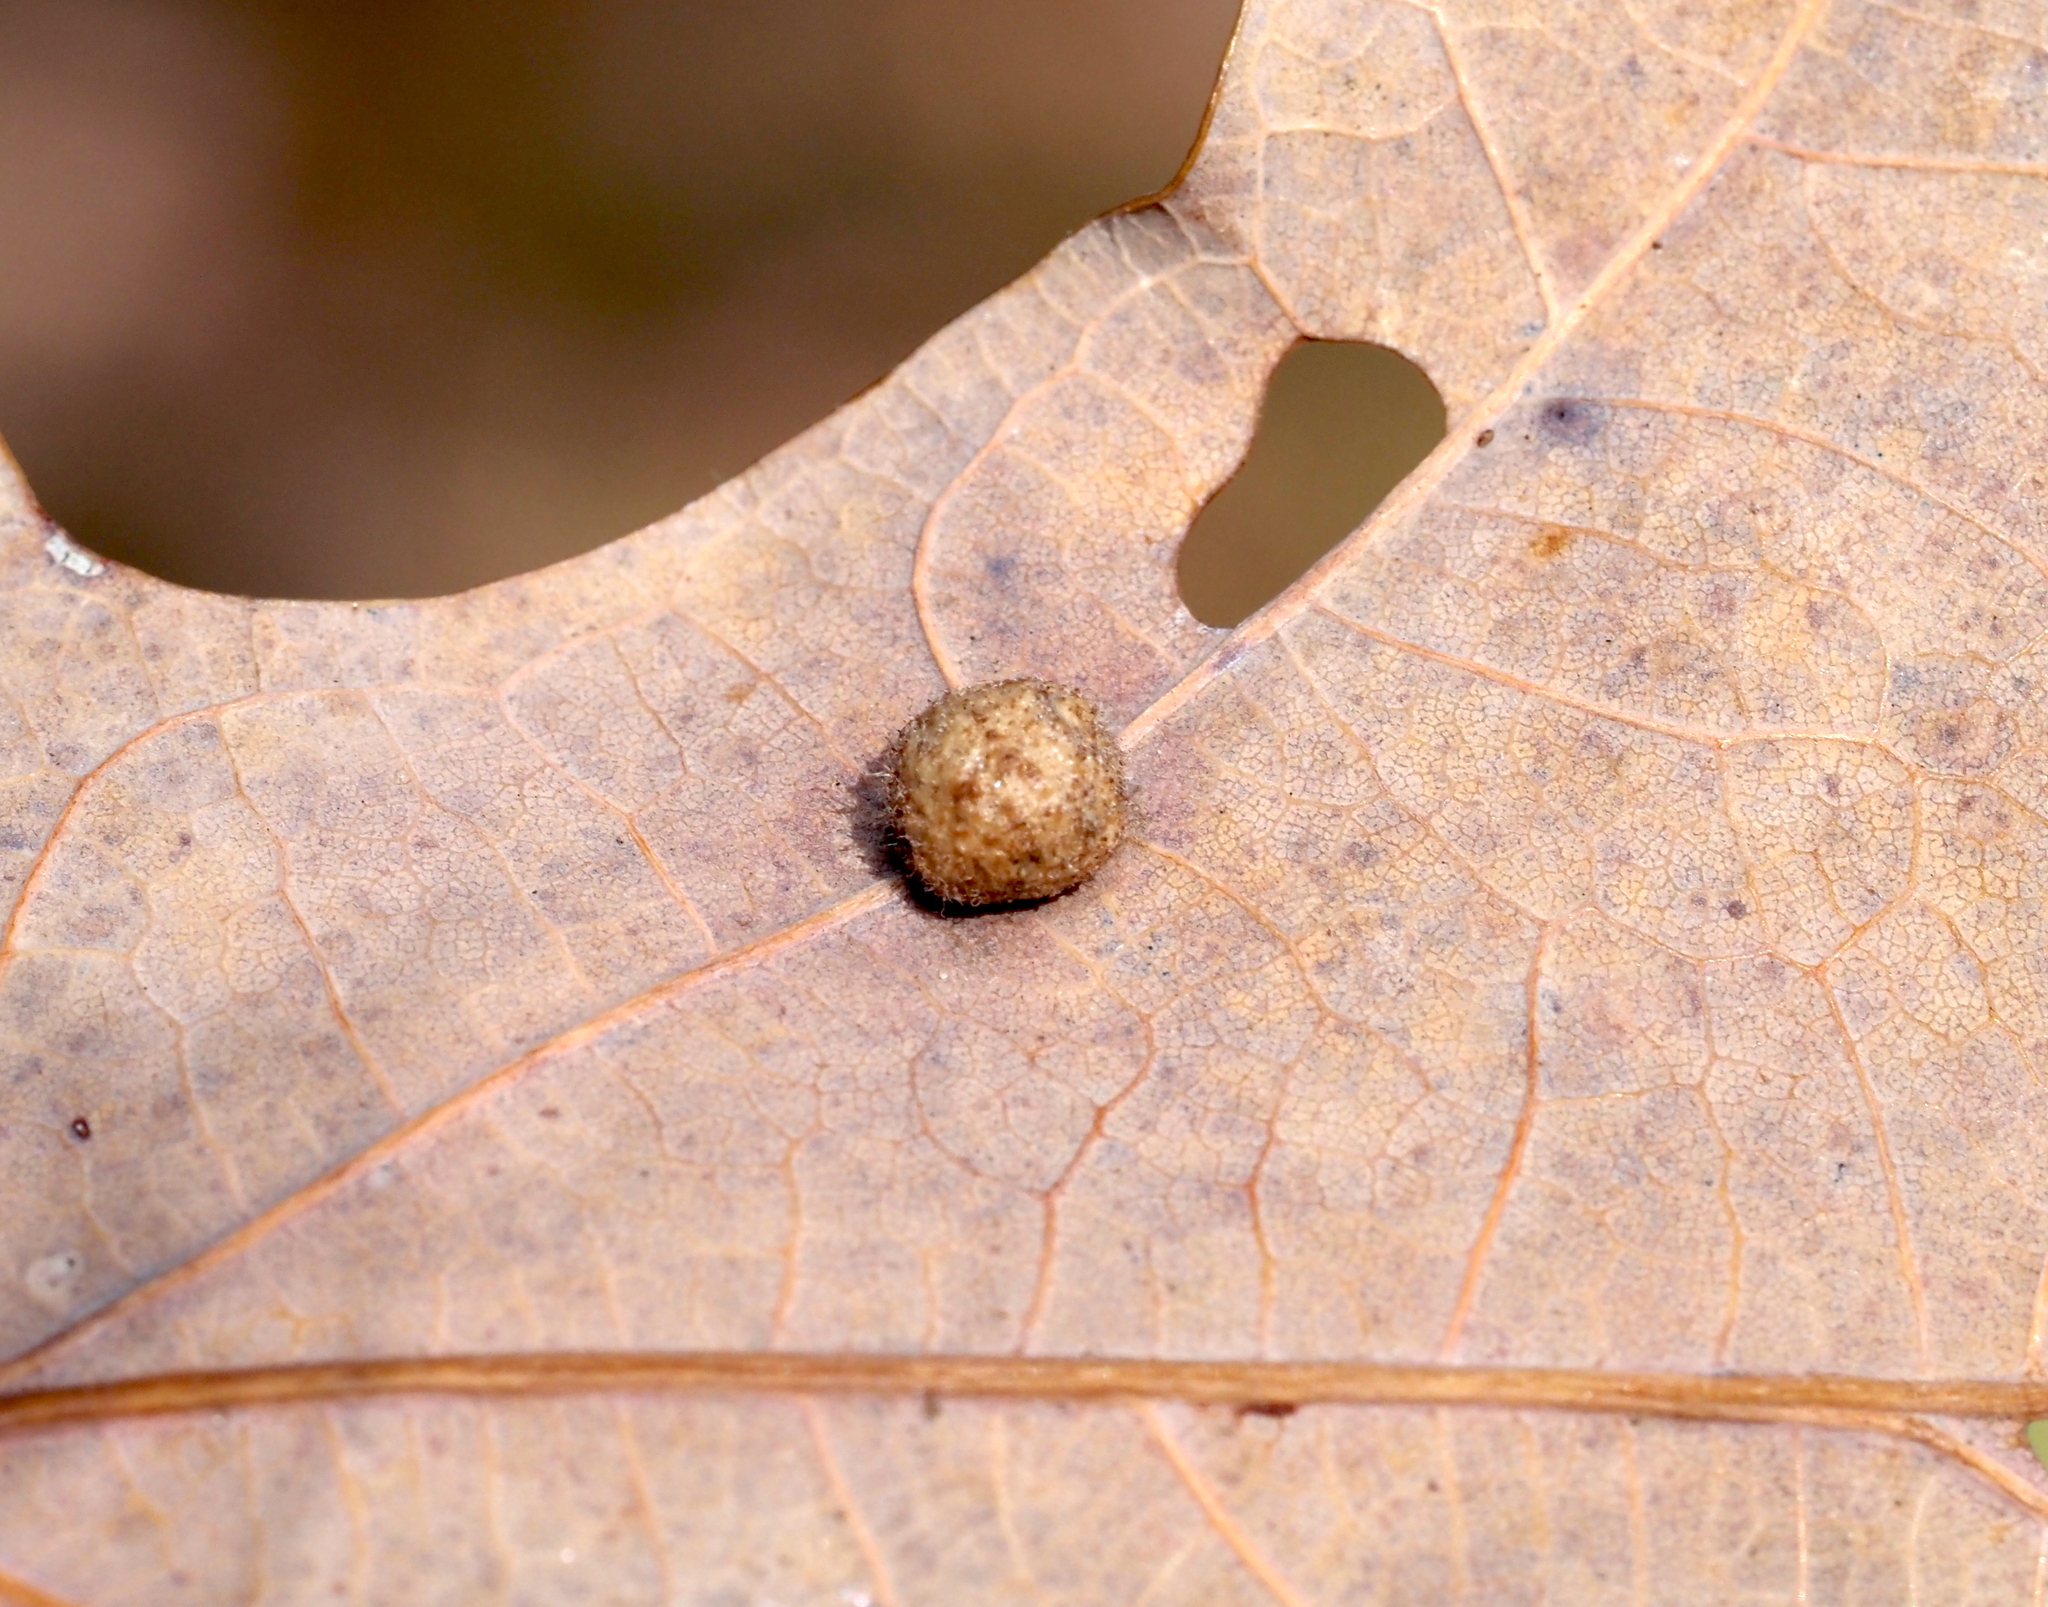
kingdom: Animalia
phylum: Arthropoda
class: Insecta
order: Hymenoptera
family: Cynipidae
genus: Philonix
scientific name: Philonix fulvicollis
